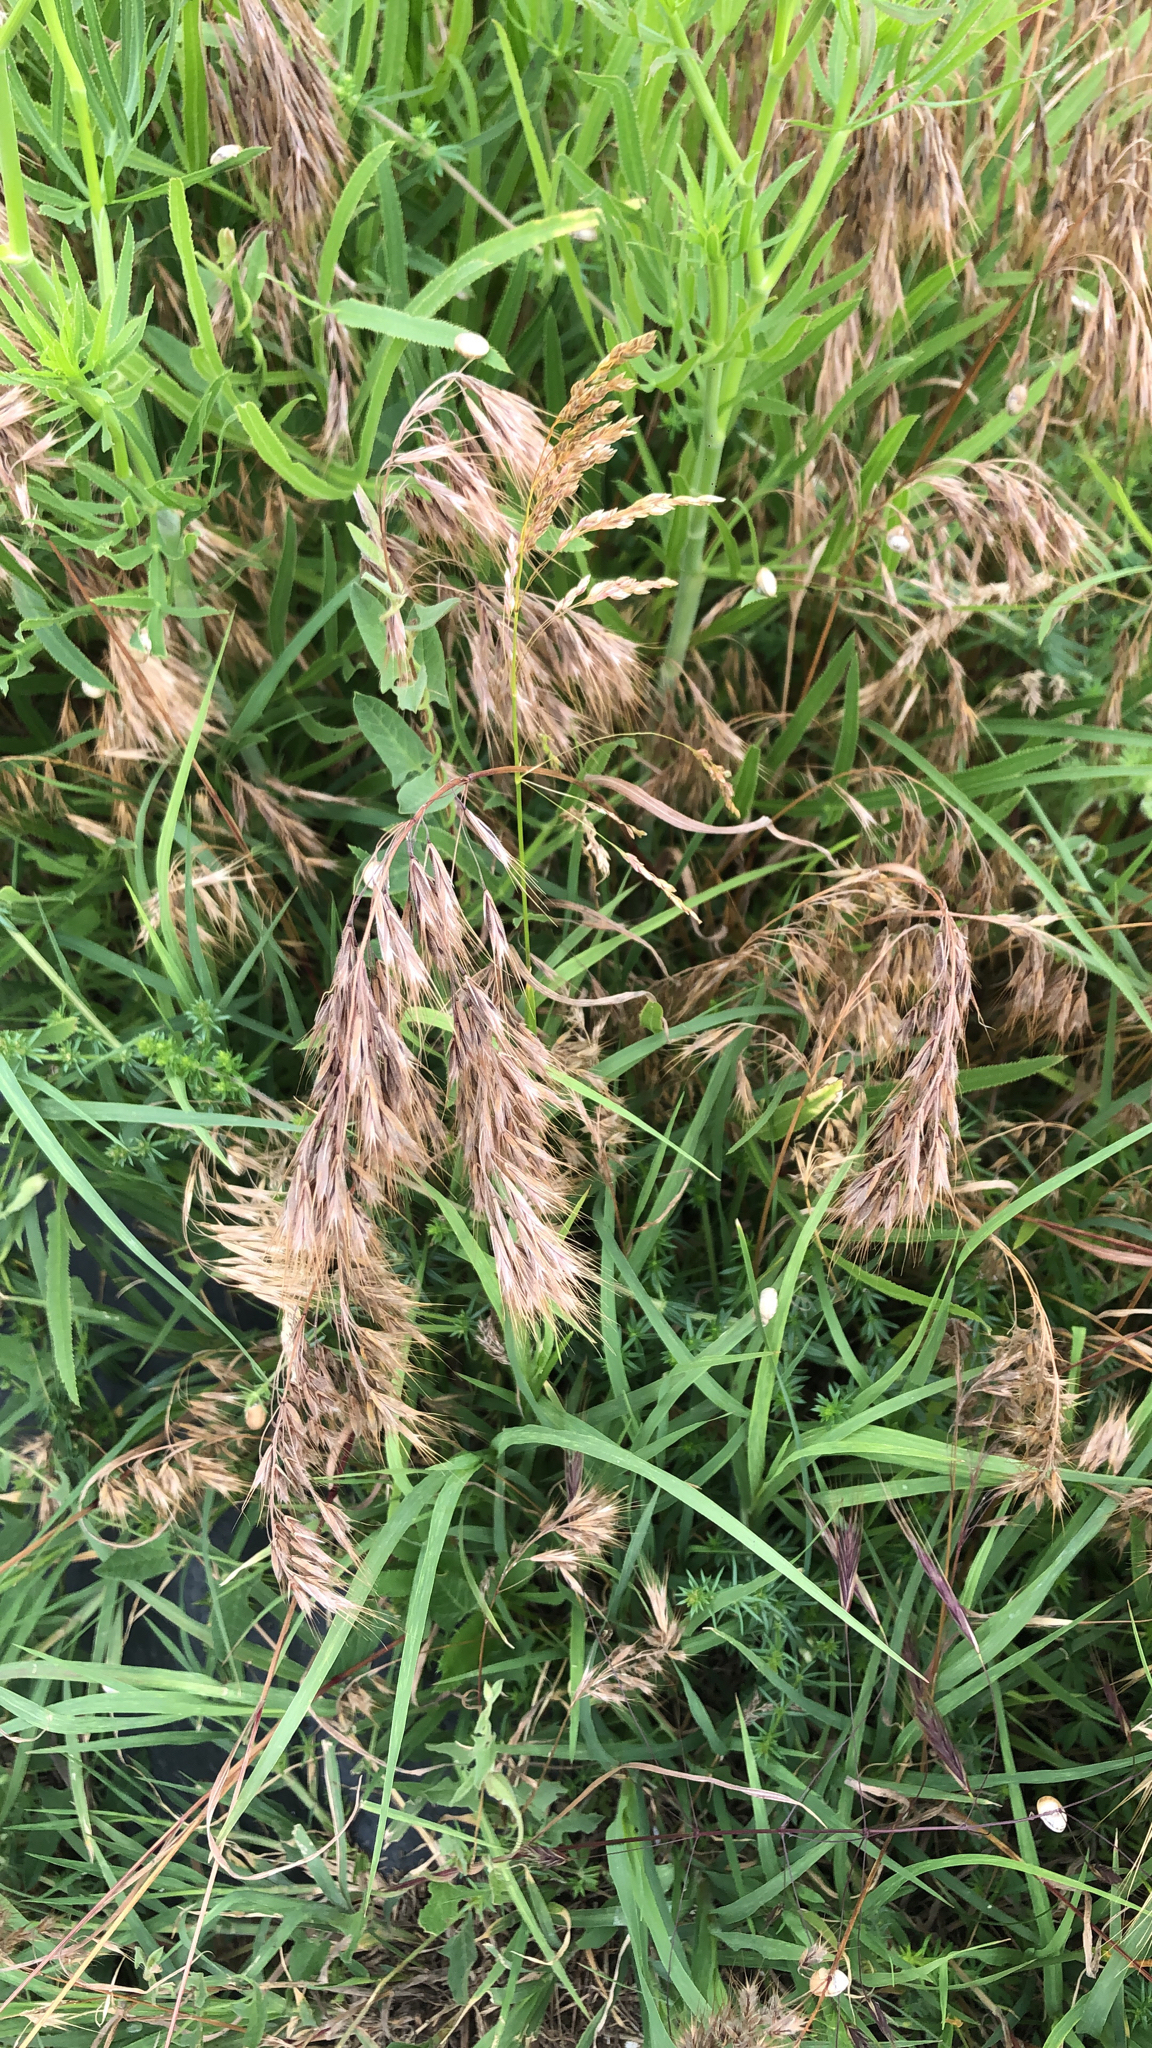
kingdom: Plantae
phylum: Tracheophyta
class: Liliopsida
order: Poales
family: Poaceae
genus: Bromus
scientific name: Bromus tectorum
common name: Cheatgrass
